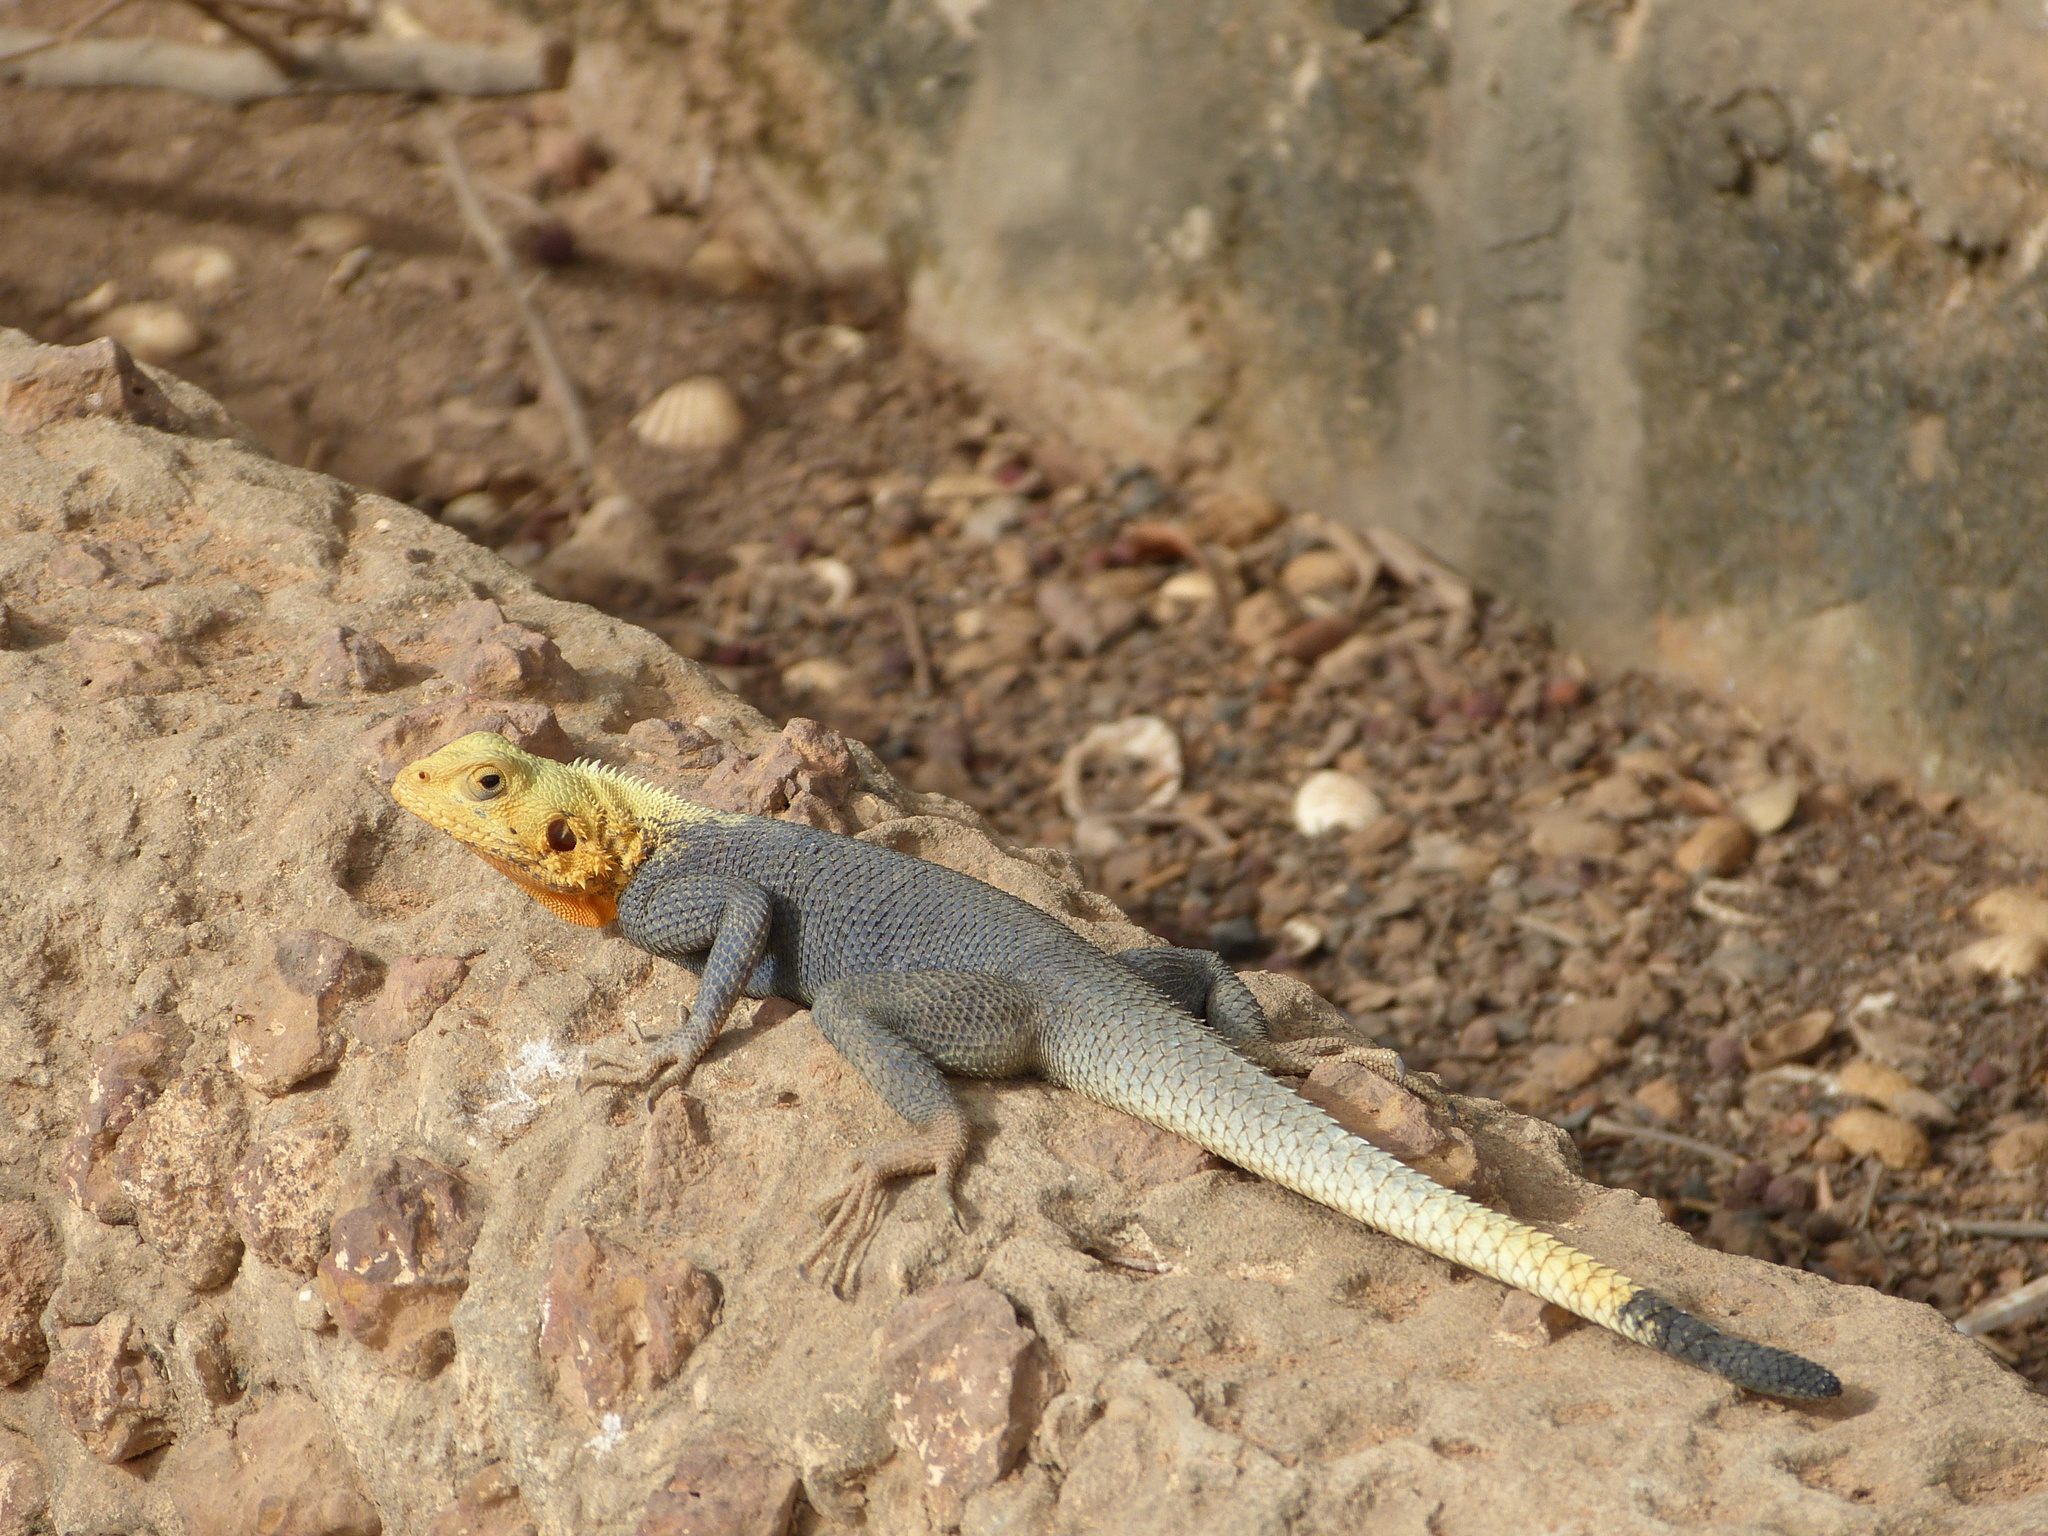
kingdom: Animalia
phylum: Chordata
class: Squamata
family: Agamidae
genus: Agama
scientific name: Agama agama
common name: Common agama
